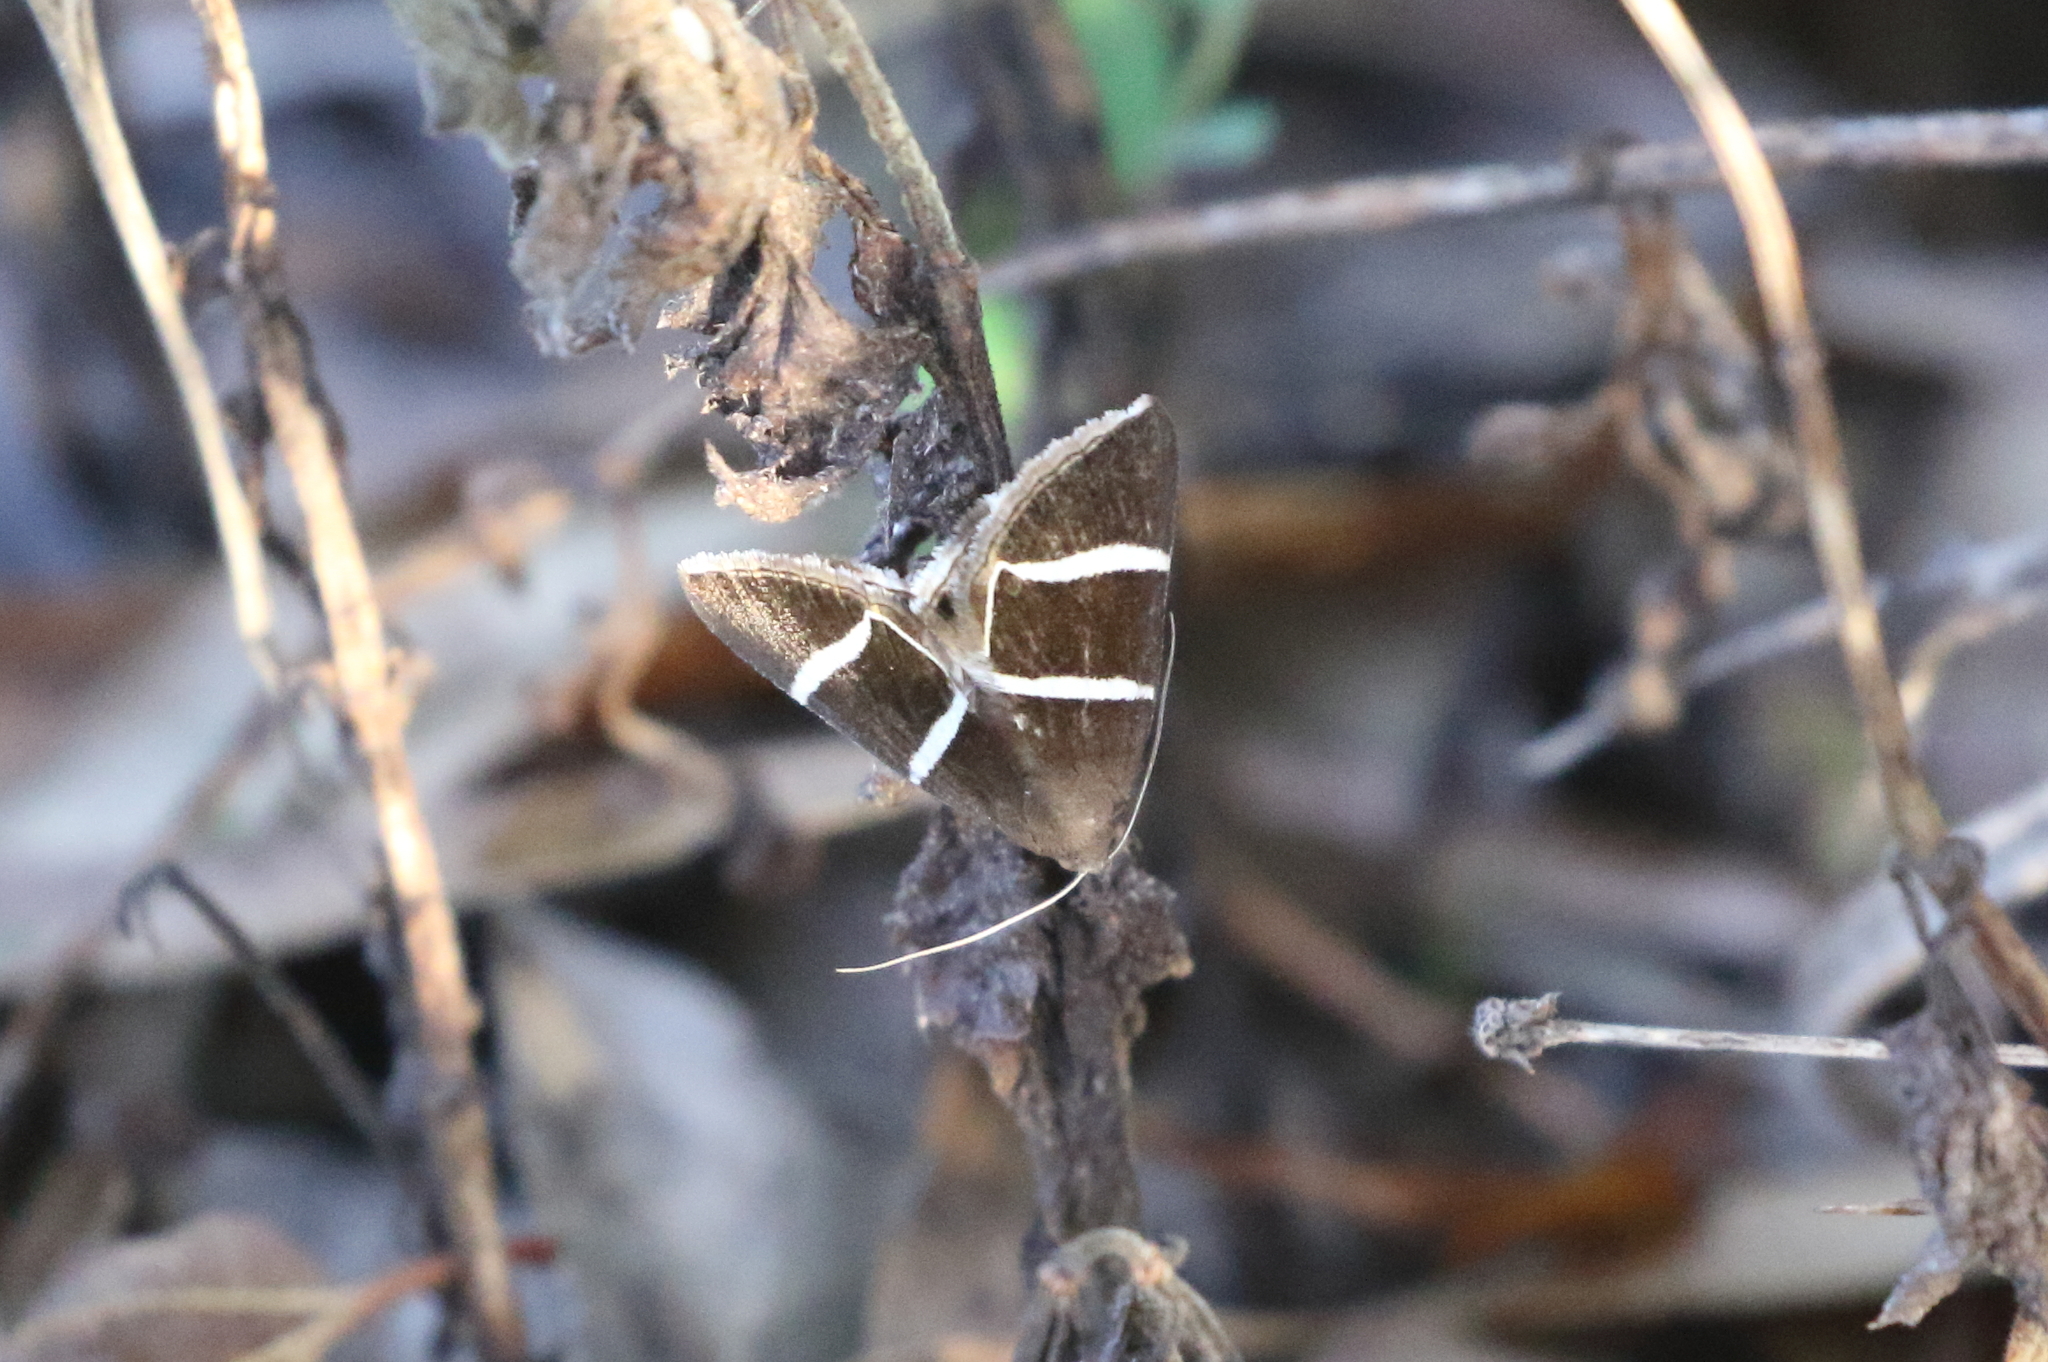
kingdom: Animalia
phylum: Arthropoda
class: Insecta
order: Lepidoptera
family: Erebidae
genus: Grammodes
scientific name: Grammodes justa
